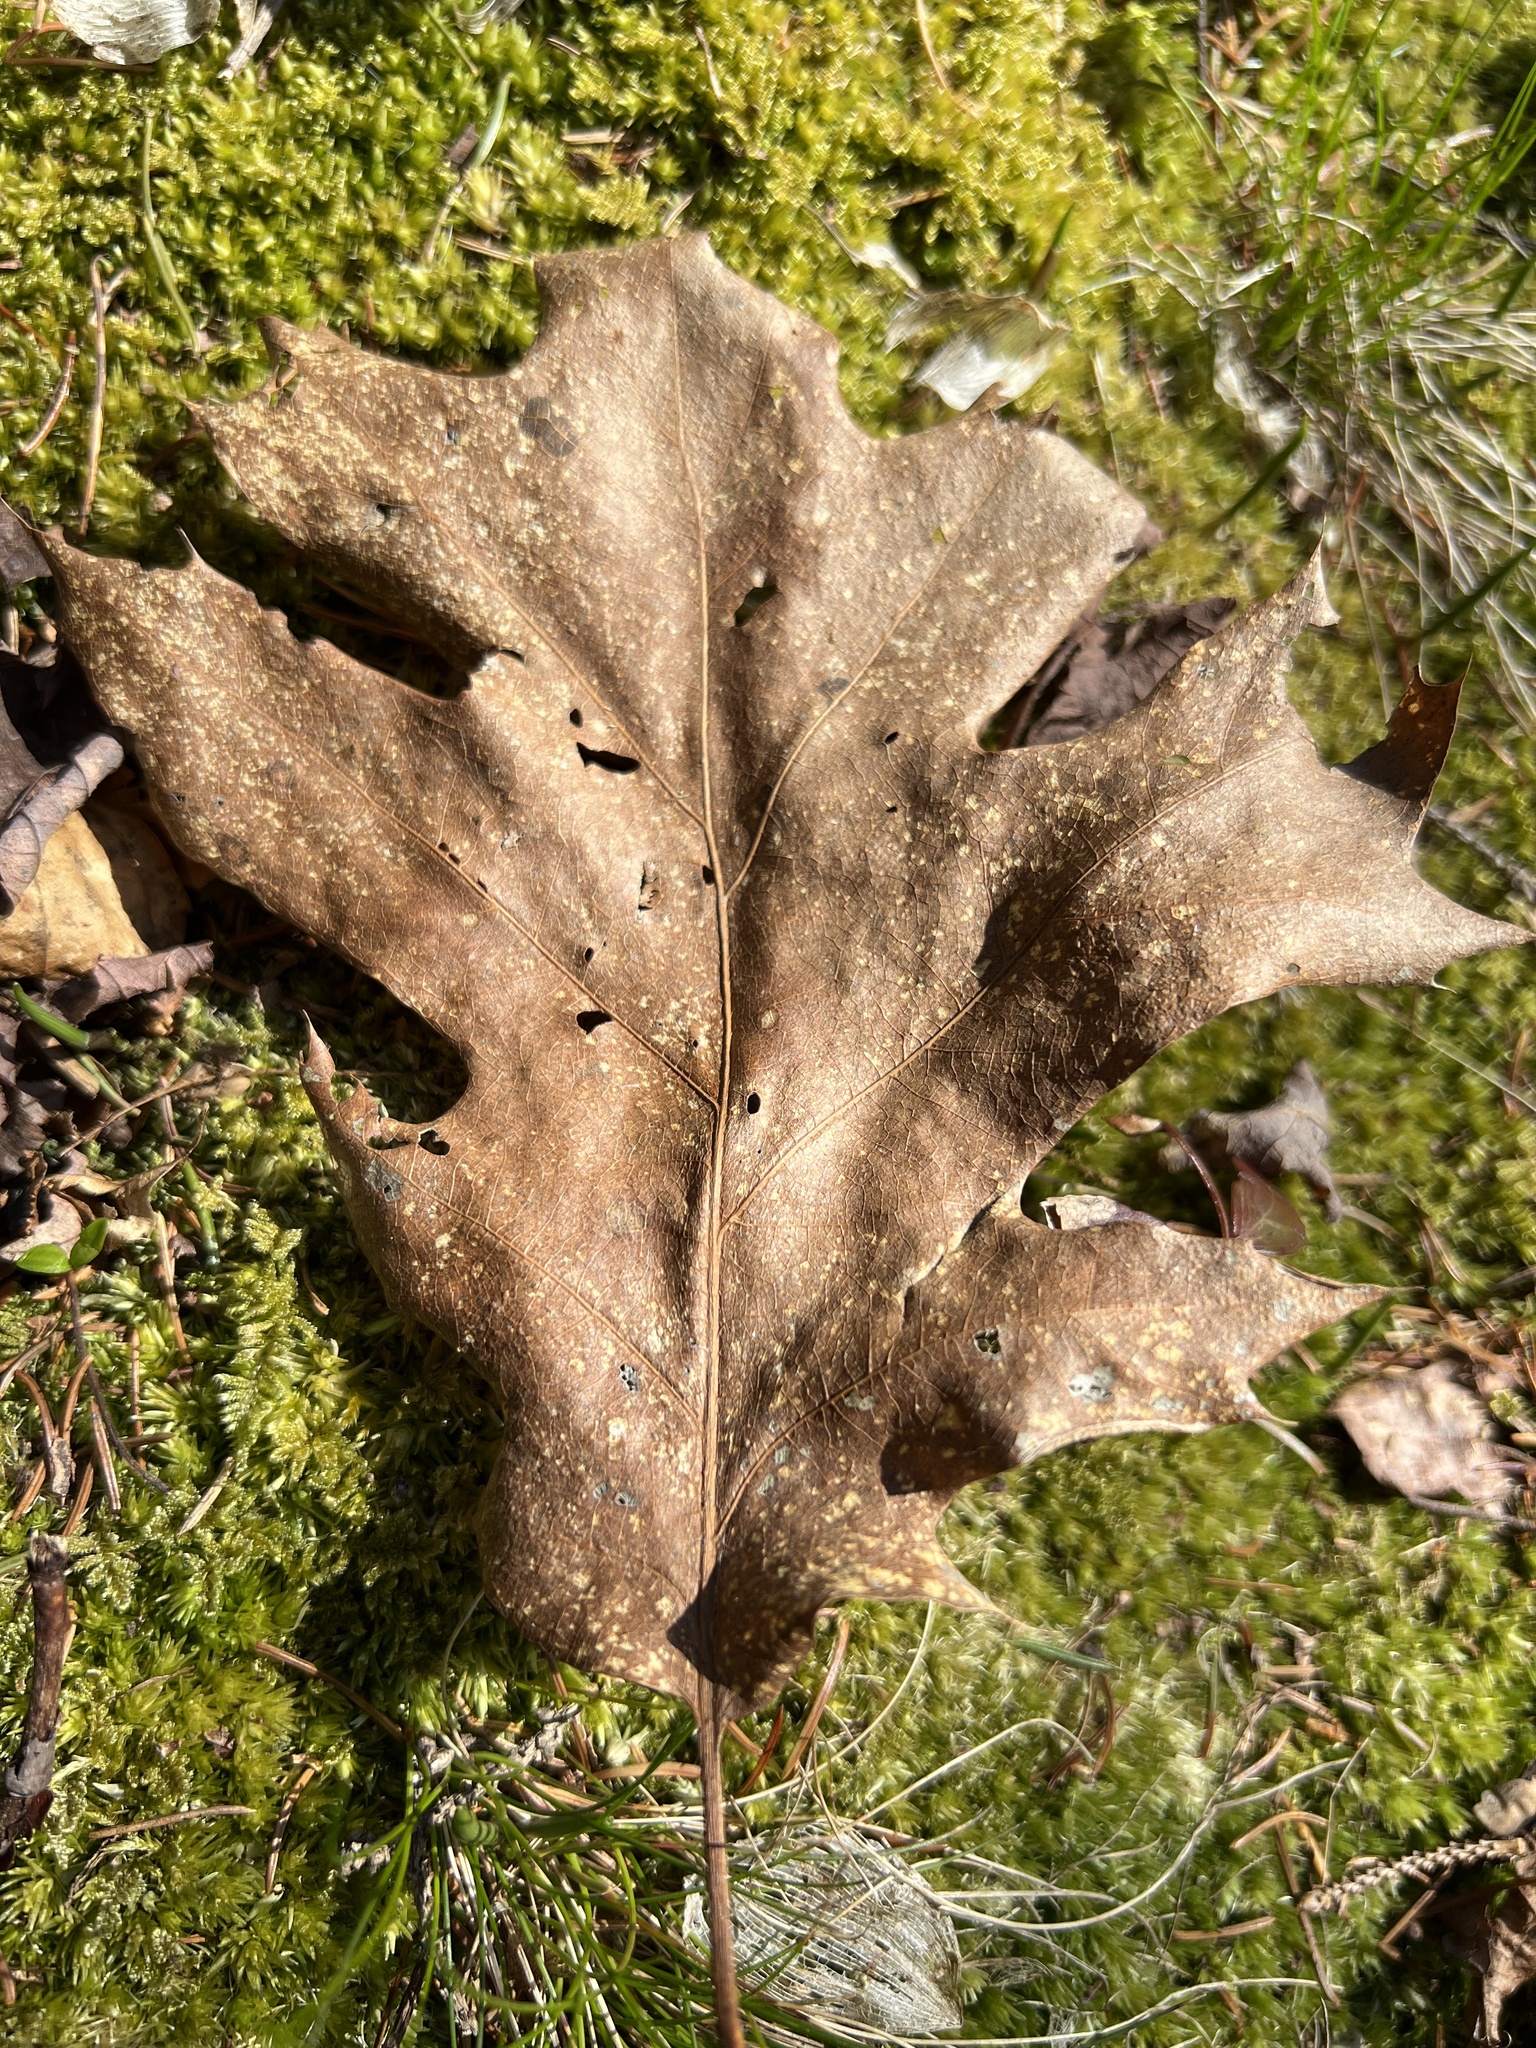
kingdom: Plantae
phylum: Tracheophyta
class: Magnoliopsida
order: Fagales
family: Fagaceae
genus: Quercus
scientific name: Quercus rubra
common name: Red oak
